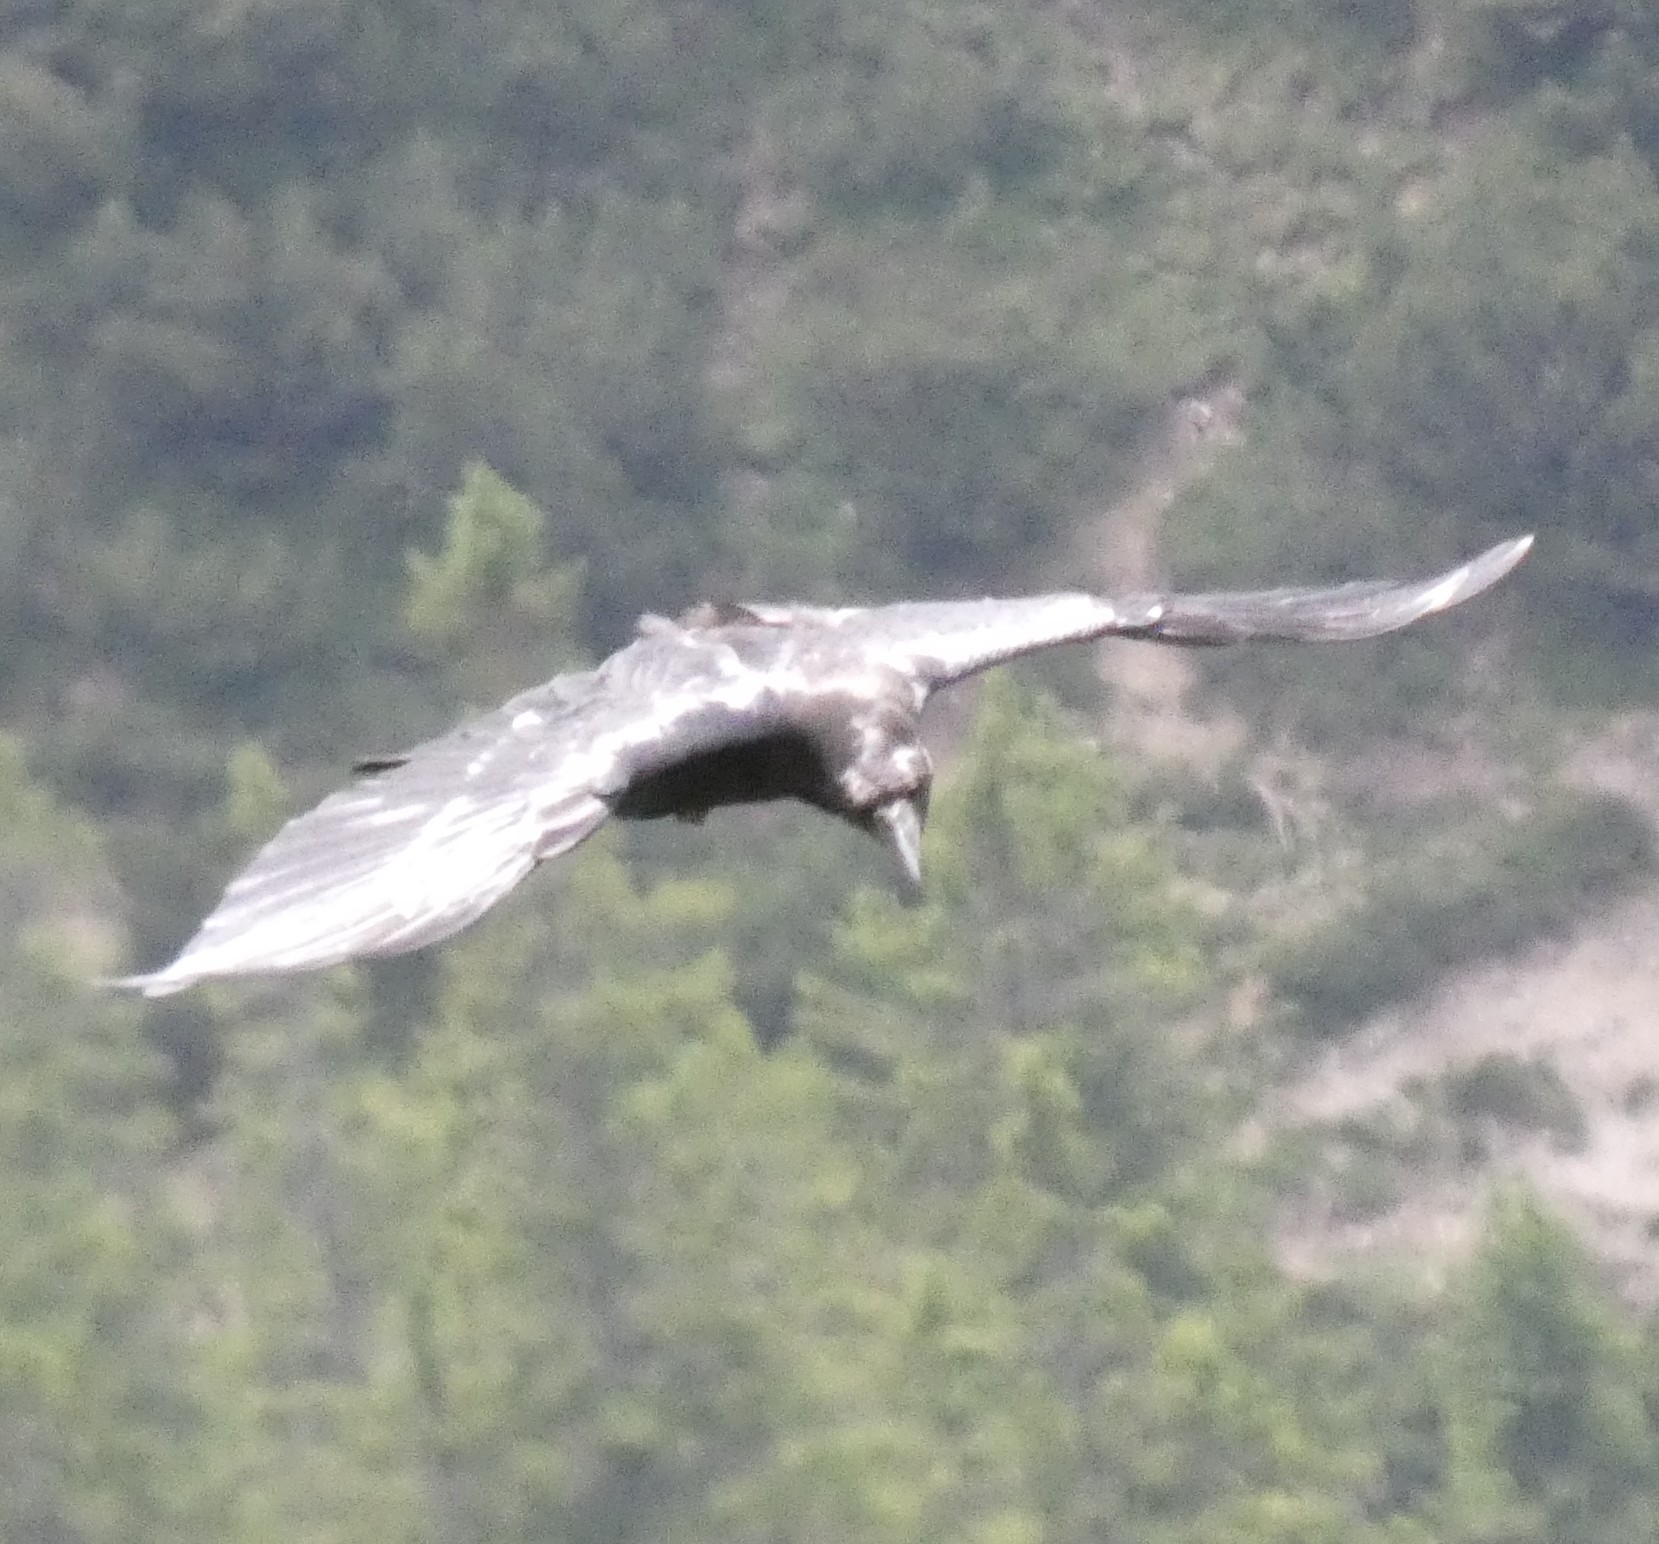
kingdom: Animalia
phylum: Chordata
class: Aves
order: Passeriformes
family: Corvidae
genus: Corvus
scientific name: Corvus corax
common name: Common raven
